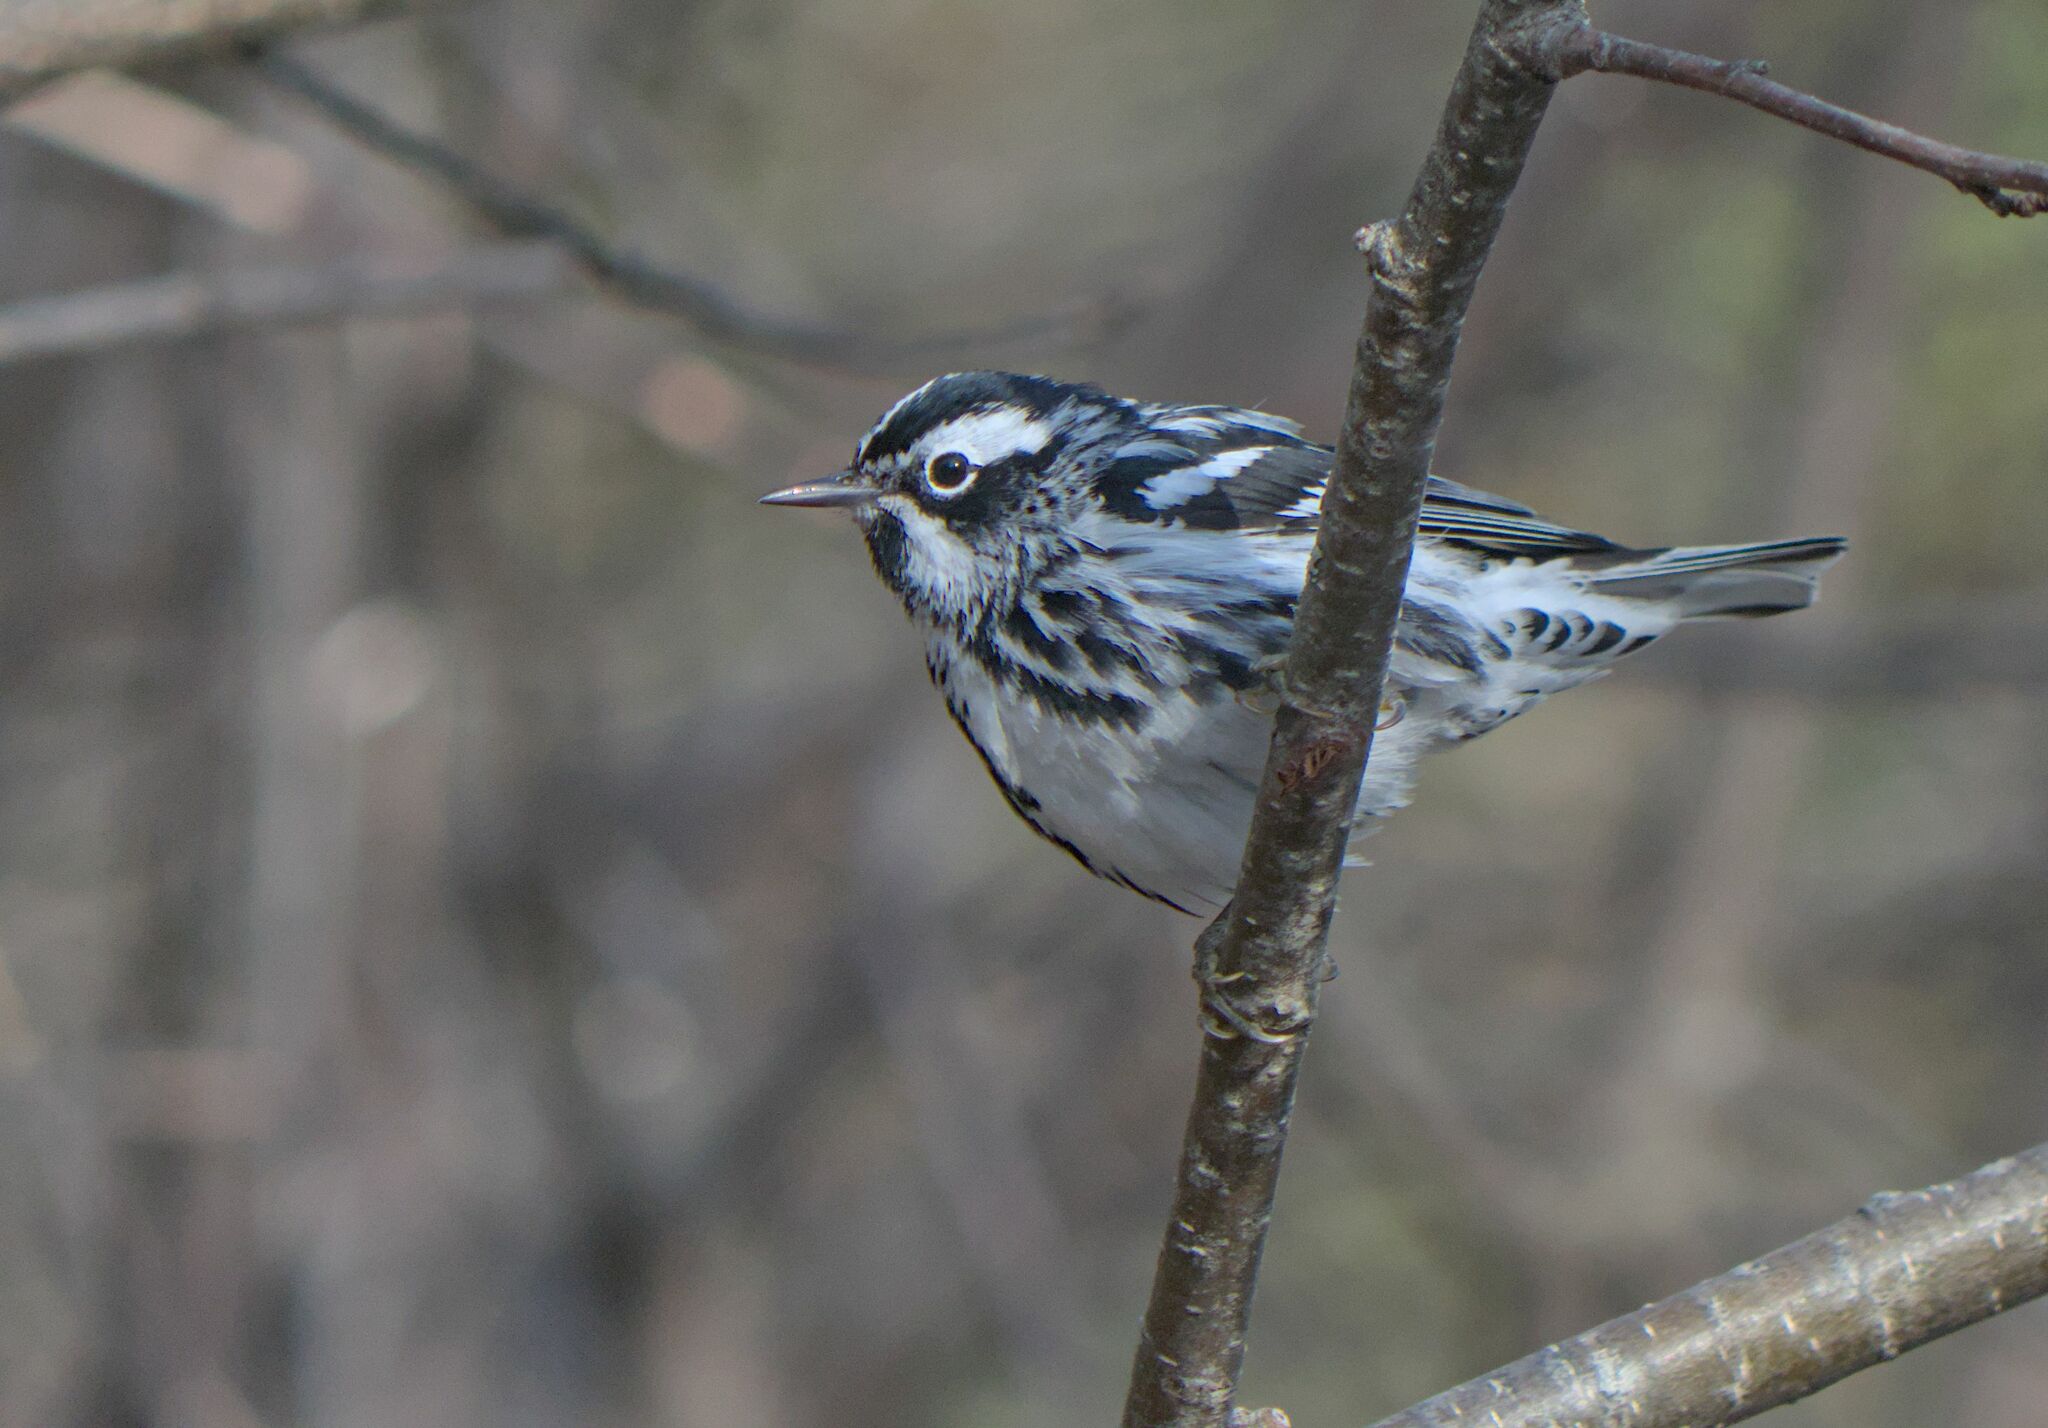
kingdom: Animalia
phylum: Chordata
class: Aves
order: Passeriformes
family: Parulidae
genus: Mniotilta
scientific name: Mniotilta varia
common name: Black-and-white warbler
